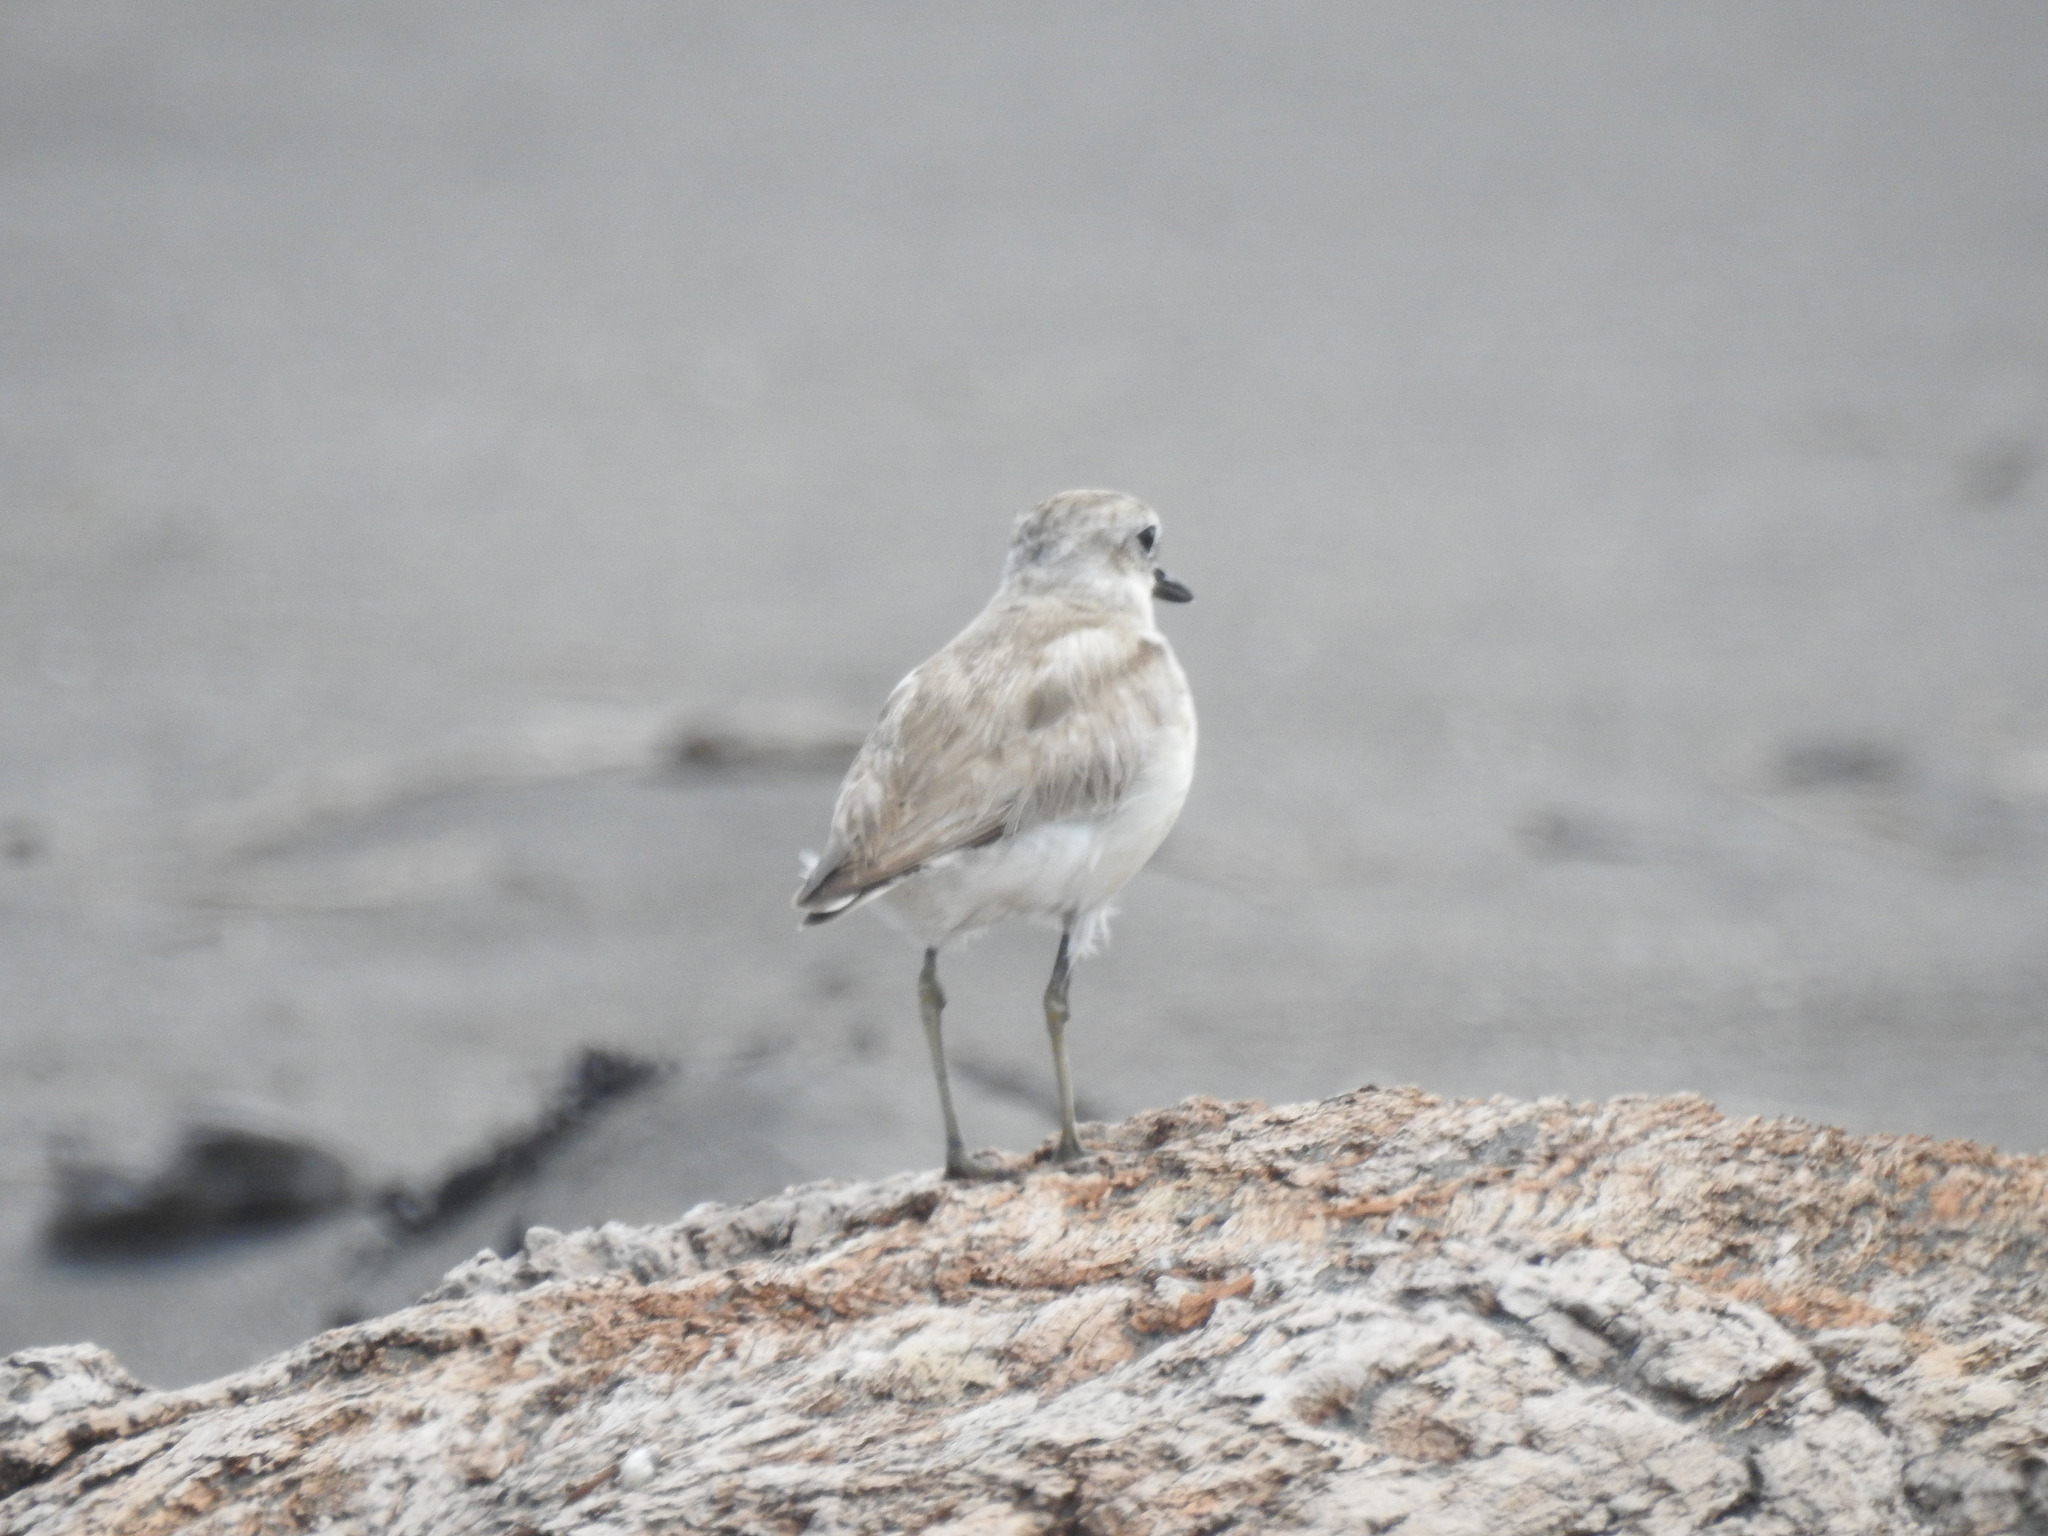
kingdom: Animalia
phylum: Chordata
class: Aves
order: Charadriiformes
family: Charadriidae
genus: Anarhynchus
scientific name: Anarhynchus
